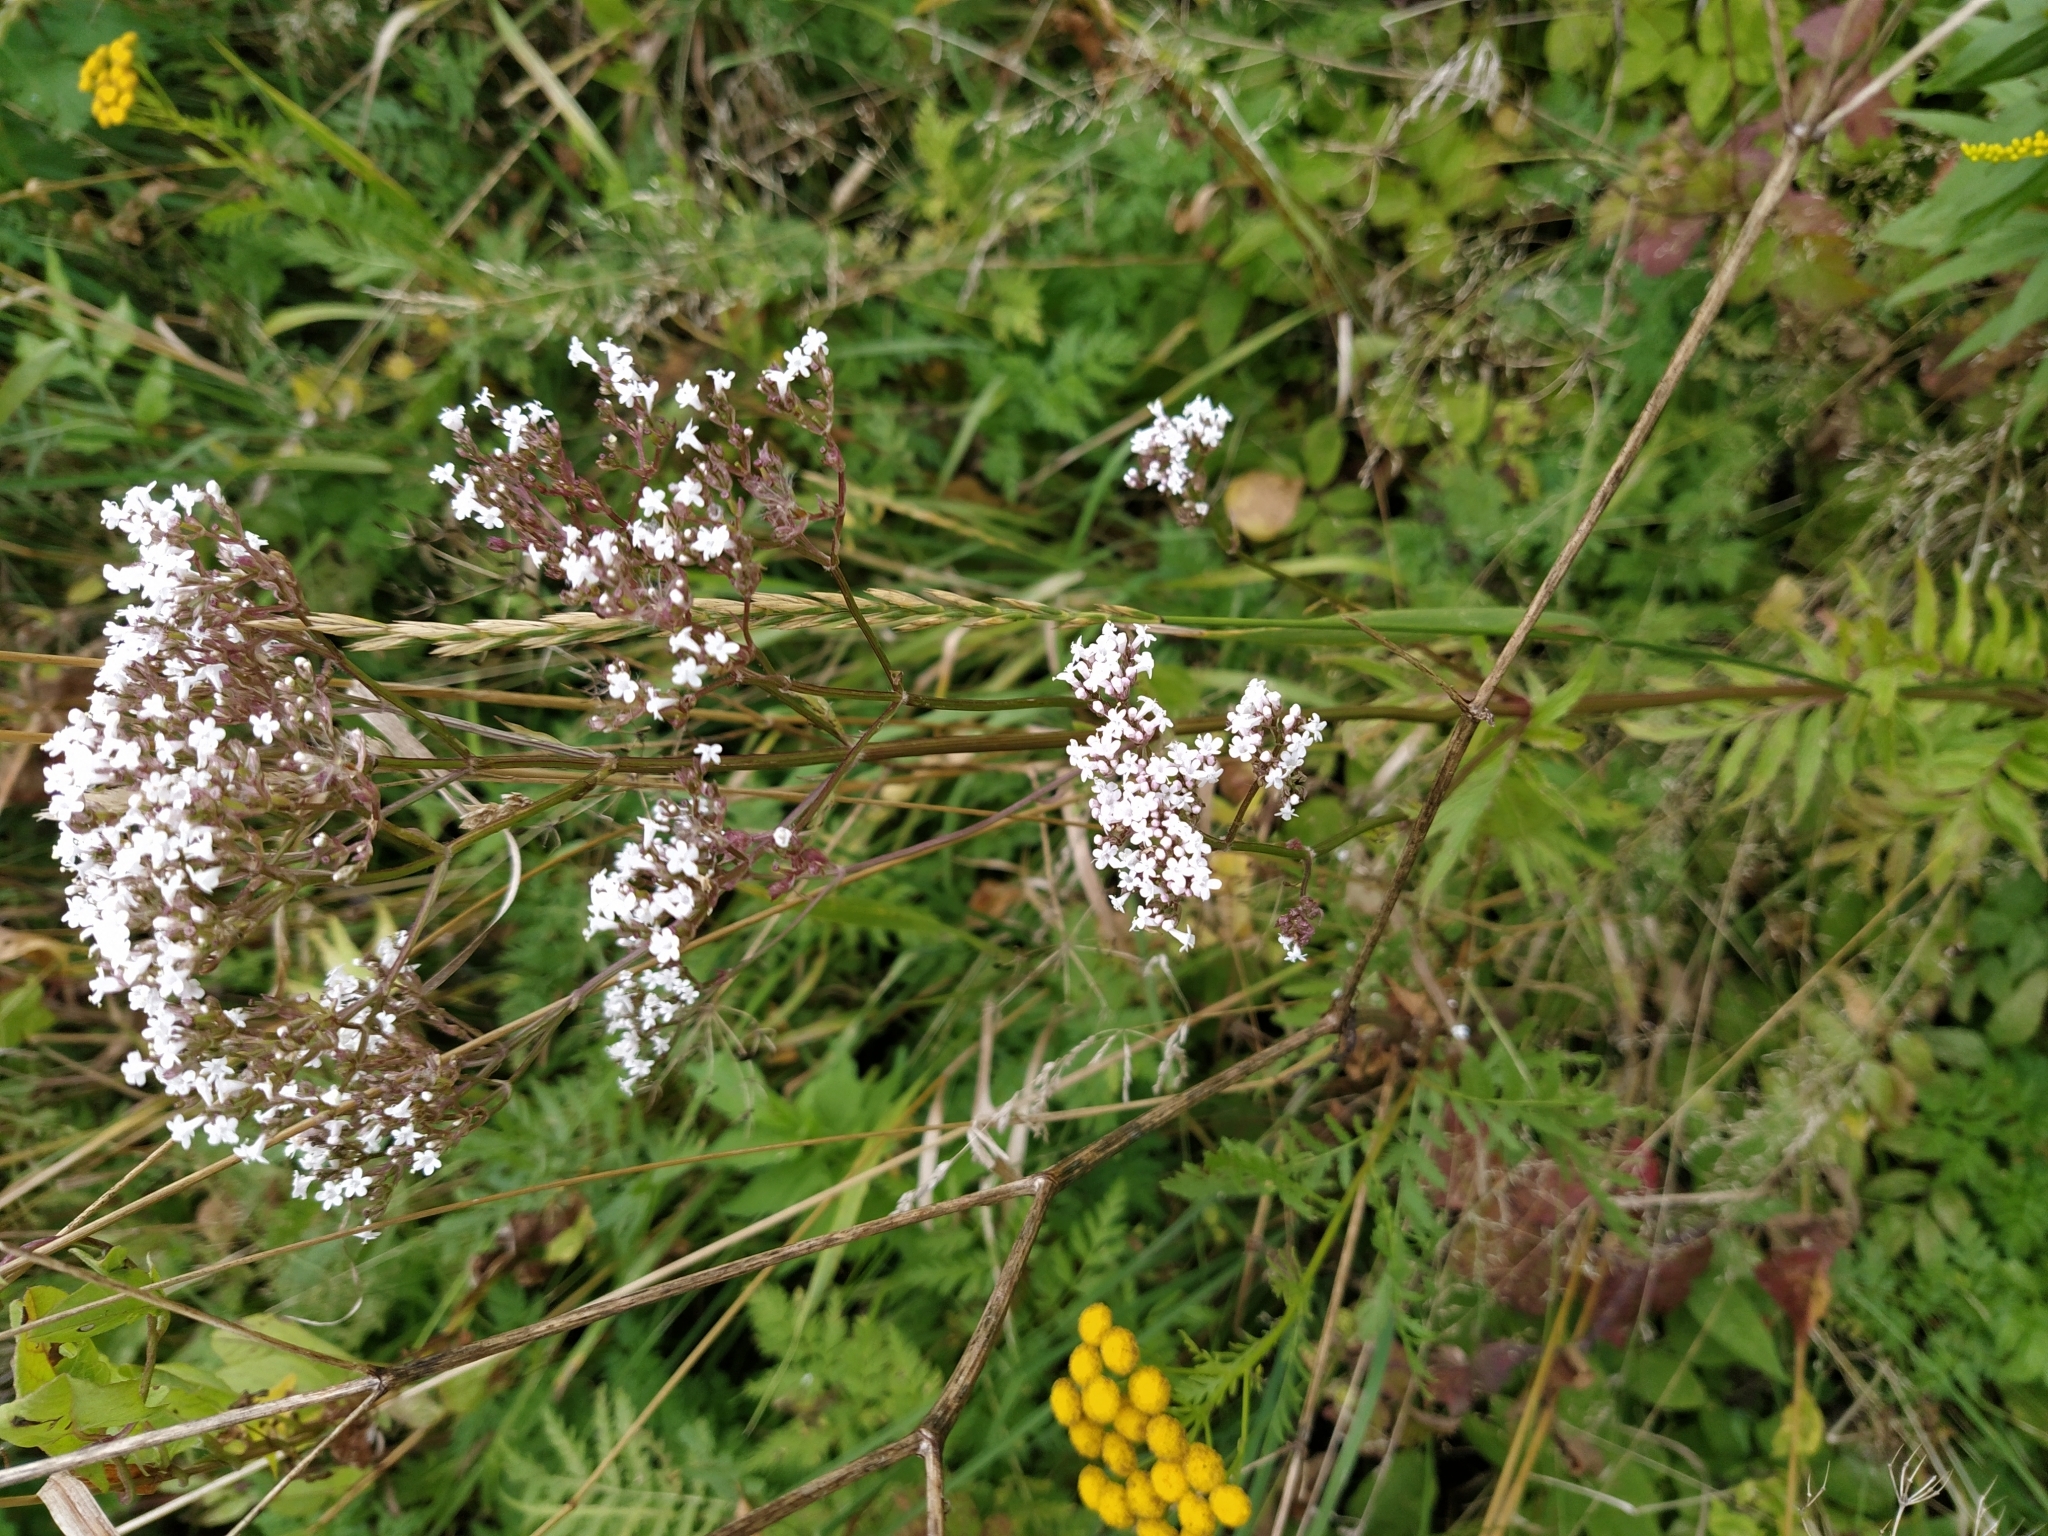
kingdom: Plantae
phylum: Tracheophyta
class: Magnoliopsida
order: Dipsacales
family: Caprifoliaceae
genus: Valeriana
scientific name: Valeriana officinalis
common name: Common valerian
